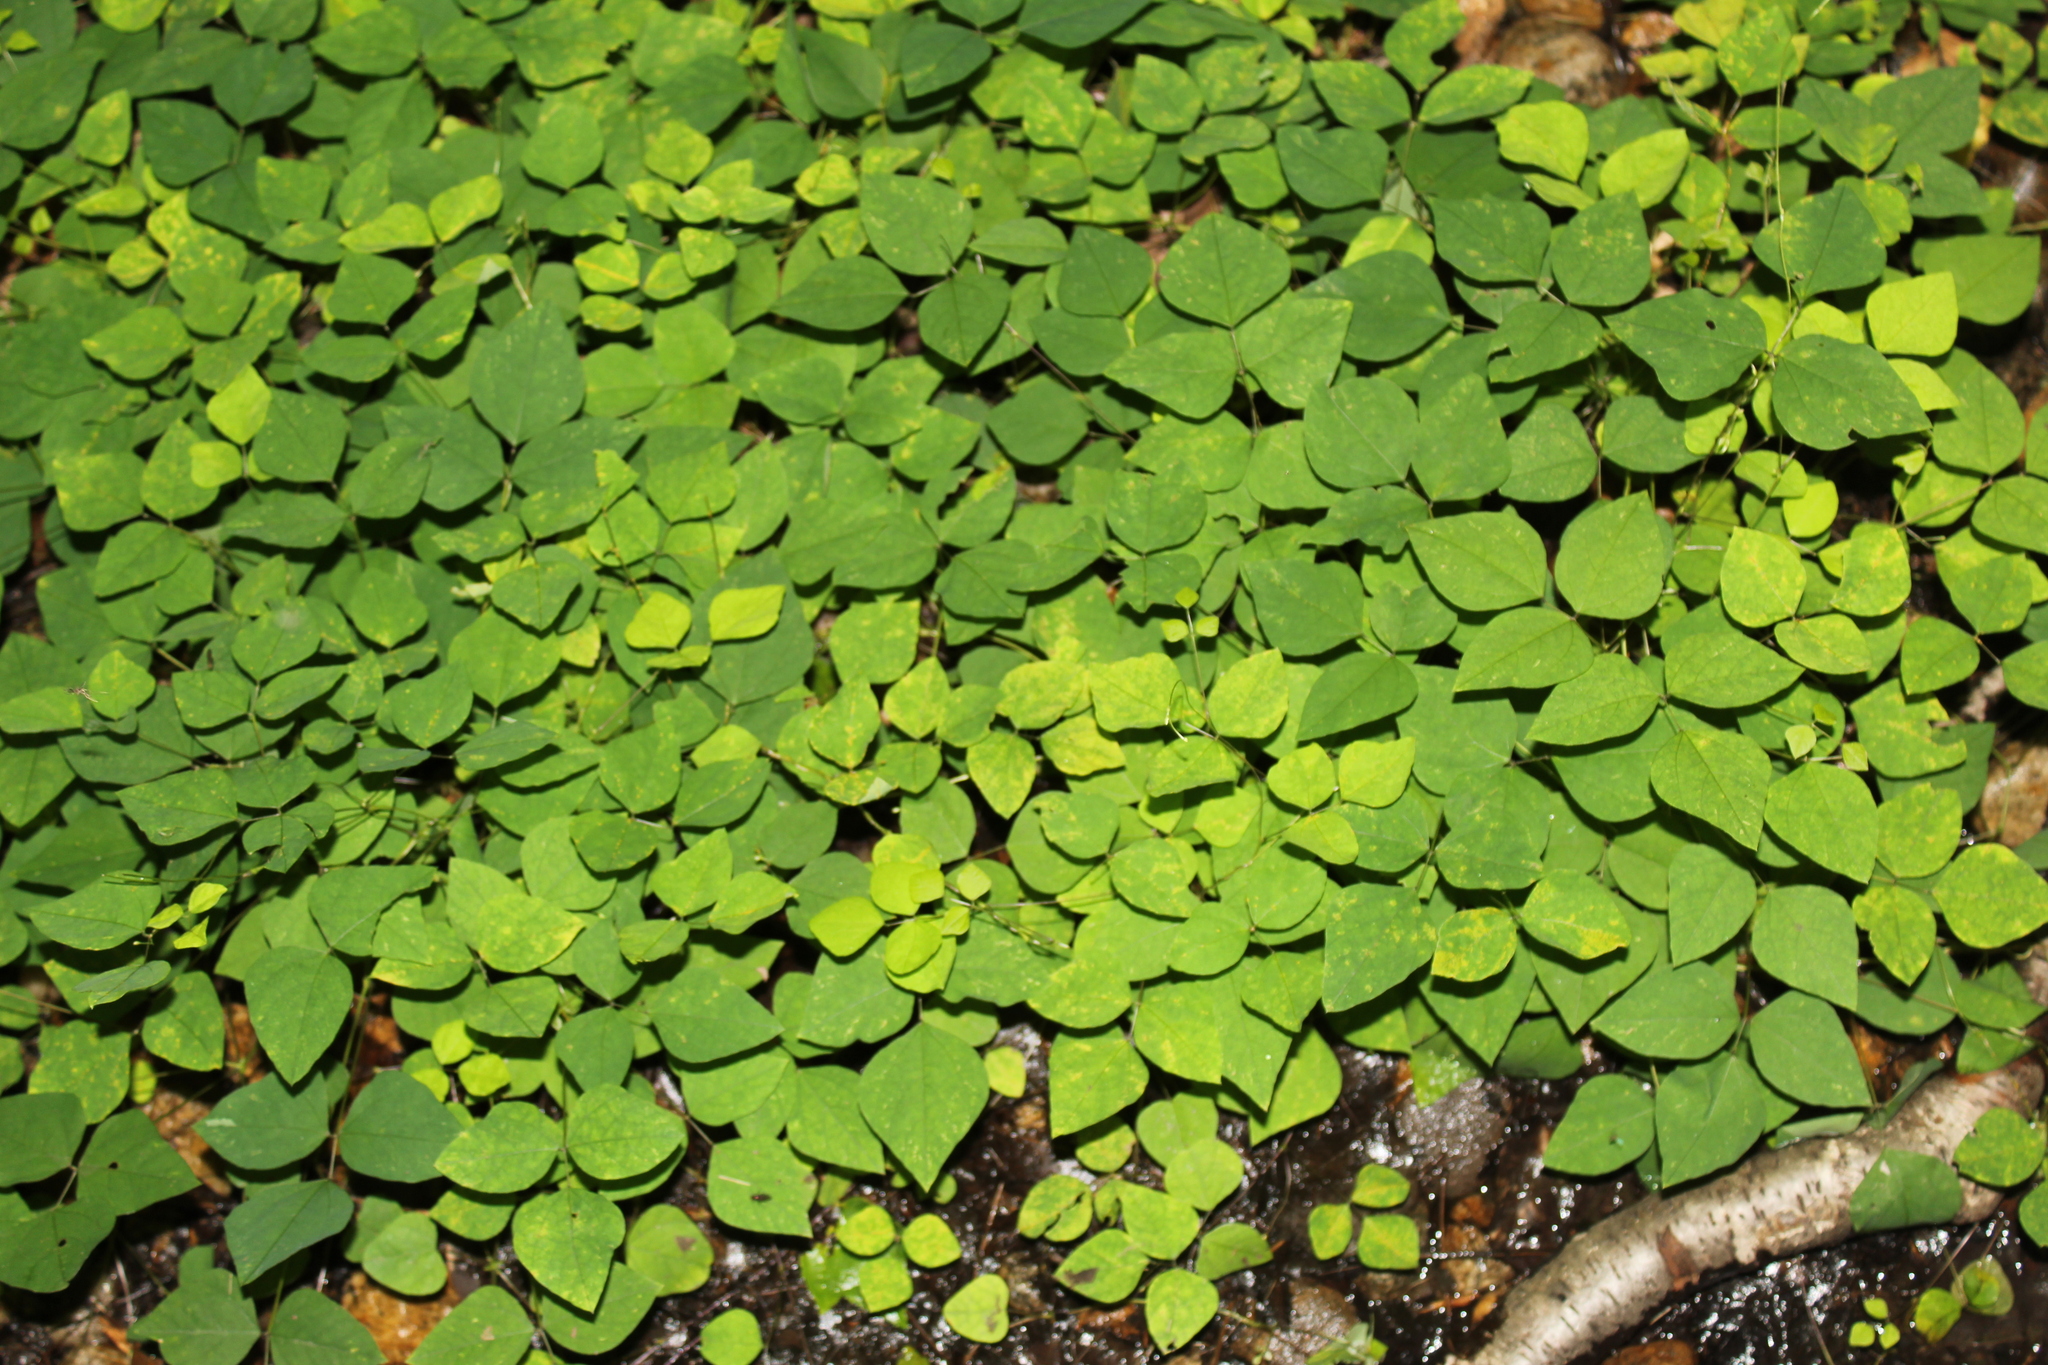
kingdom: Plantae
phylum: Tracheophyta
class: Magnoliopsida
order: Fabales
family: Fabaceae
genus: Amphicarpaea
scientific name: Amphicarpaea bracteata
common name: American hog peanut
